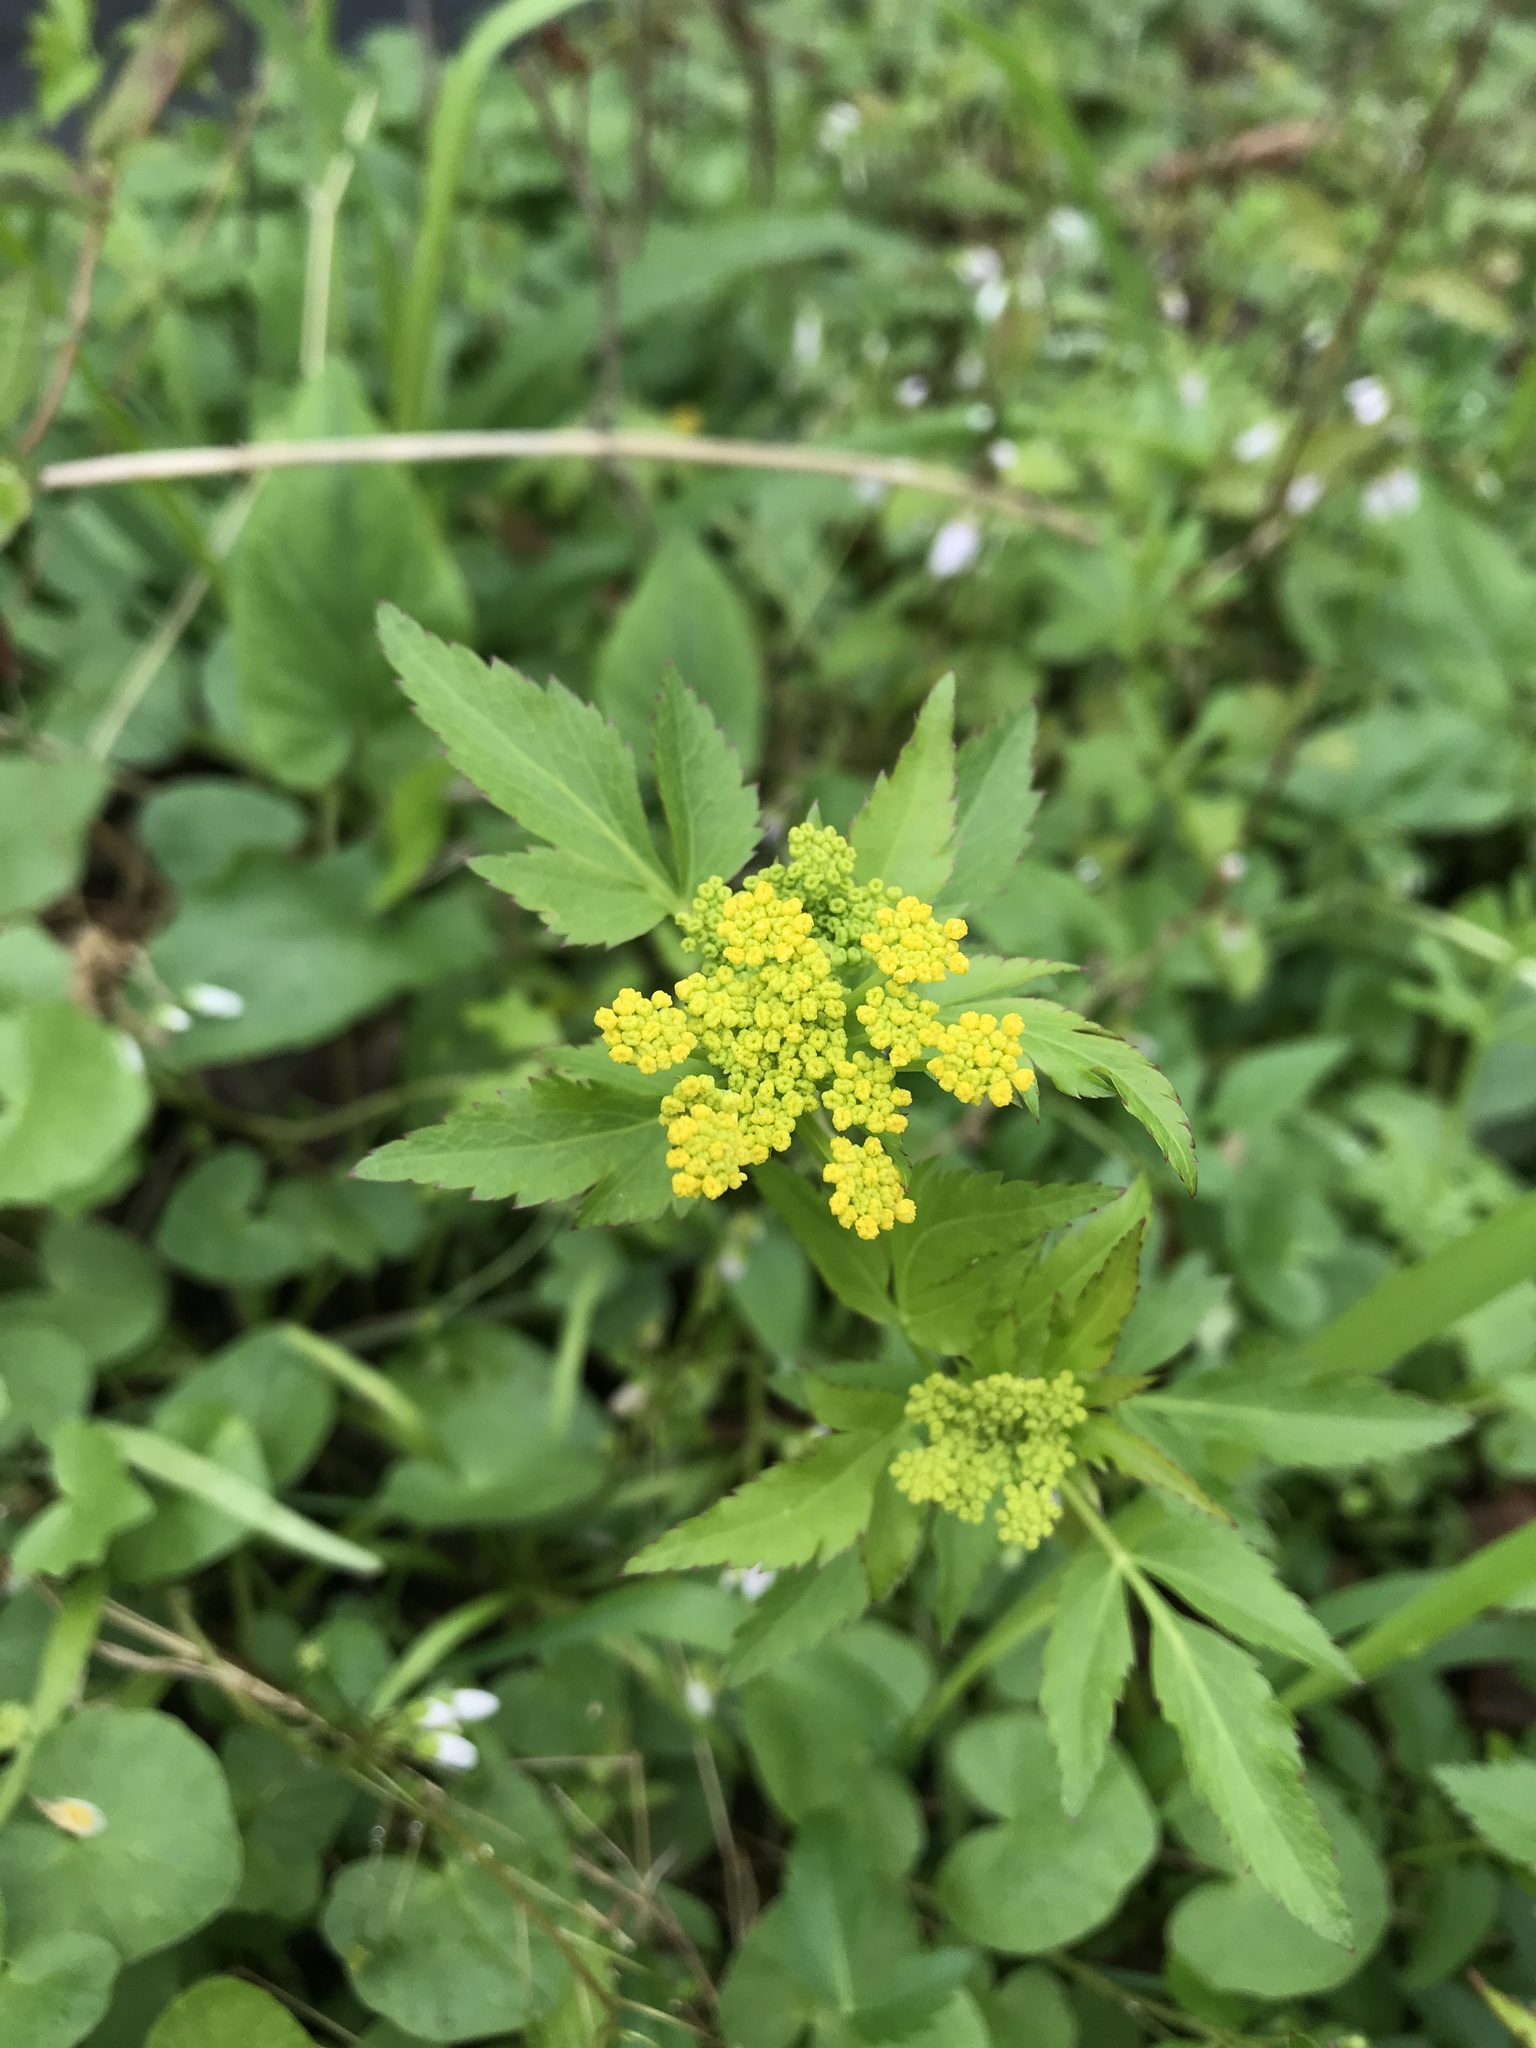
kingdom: Plantae
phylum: Tracheophyta
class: Magnoliopsida
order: Apiales
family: Apiaceae
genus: Zizia
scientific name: Zizia aurea
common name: Golden alexanders
